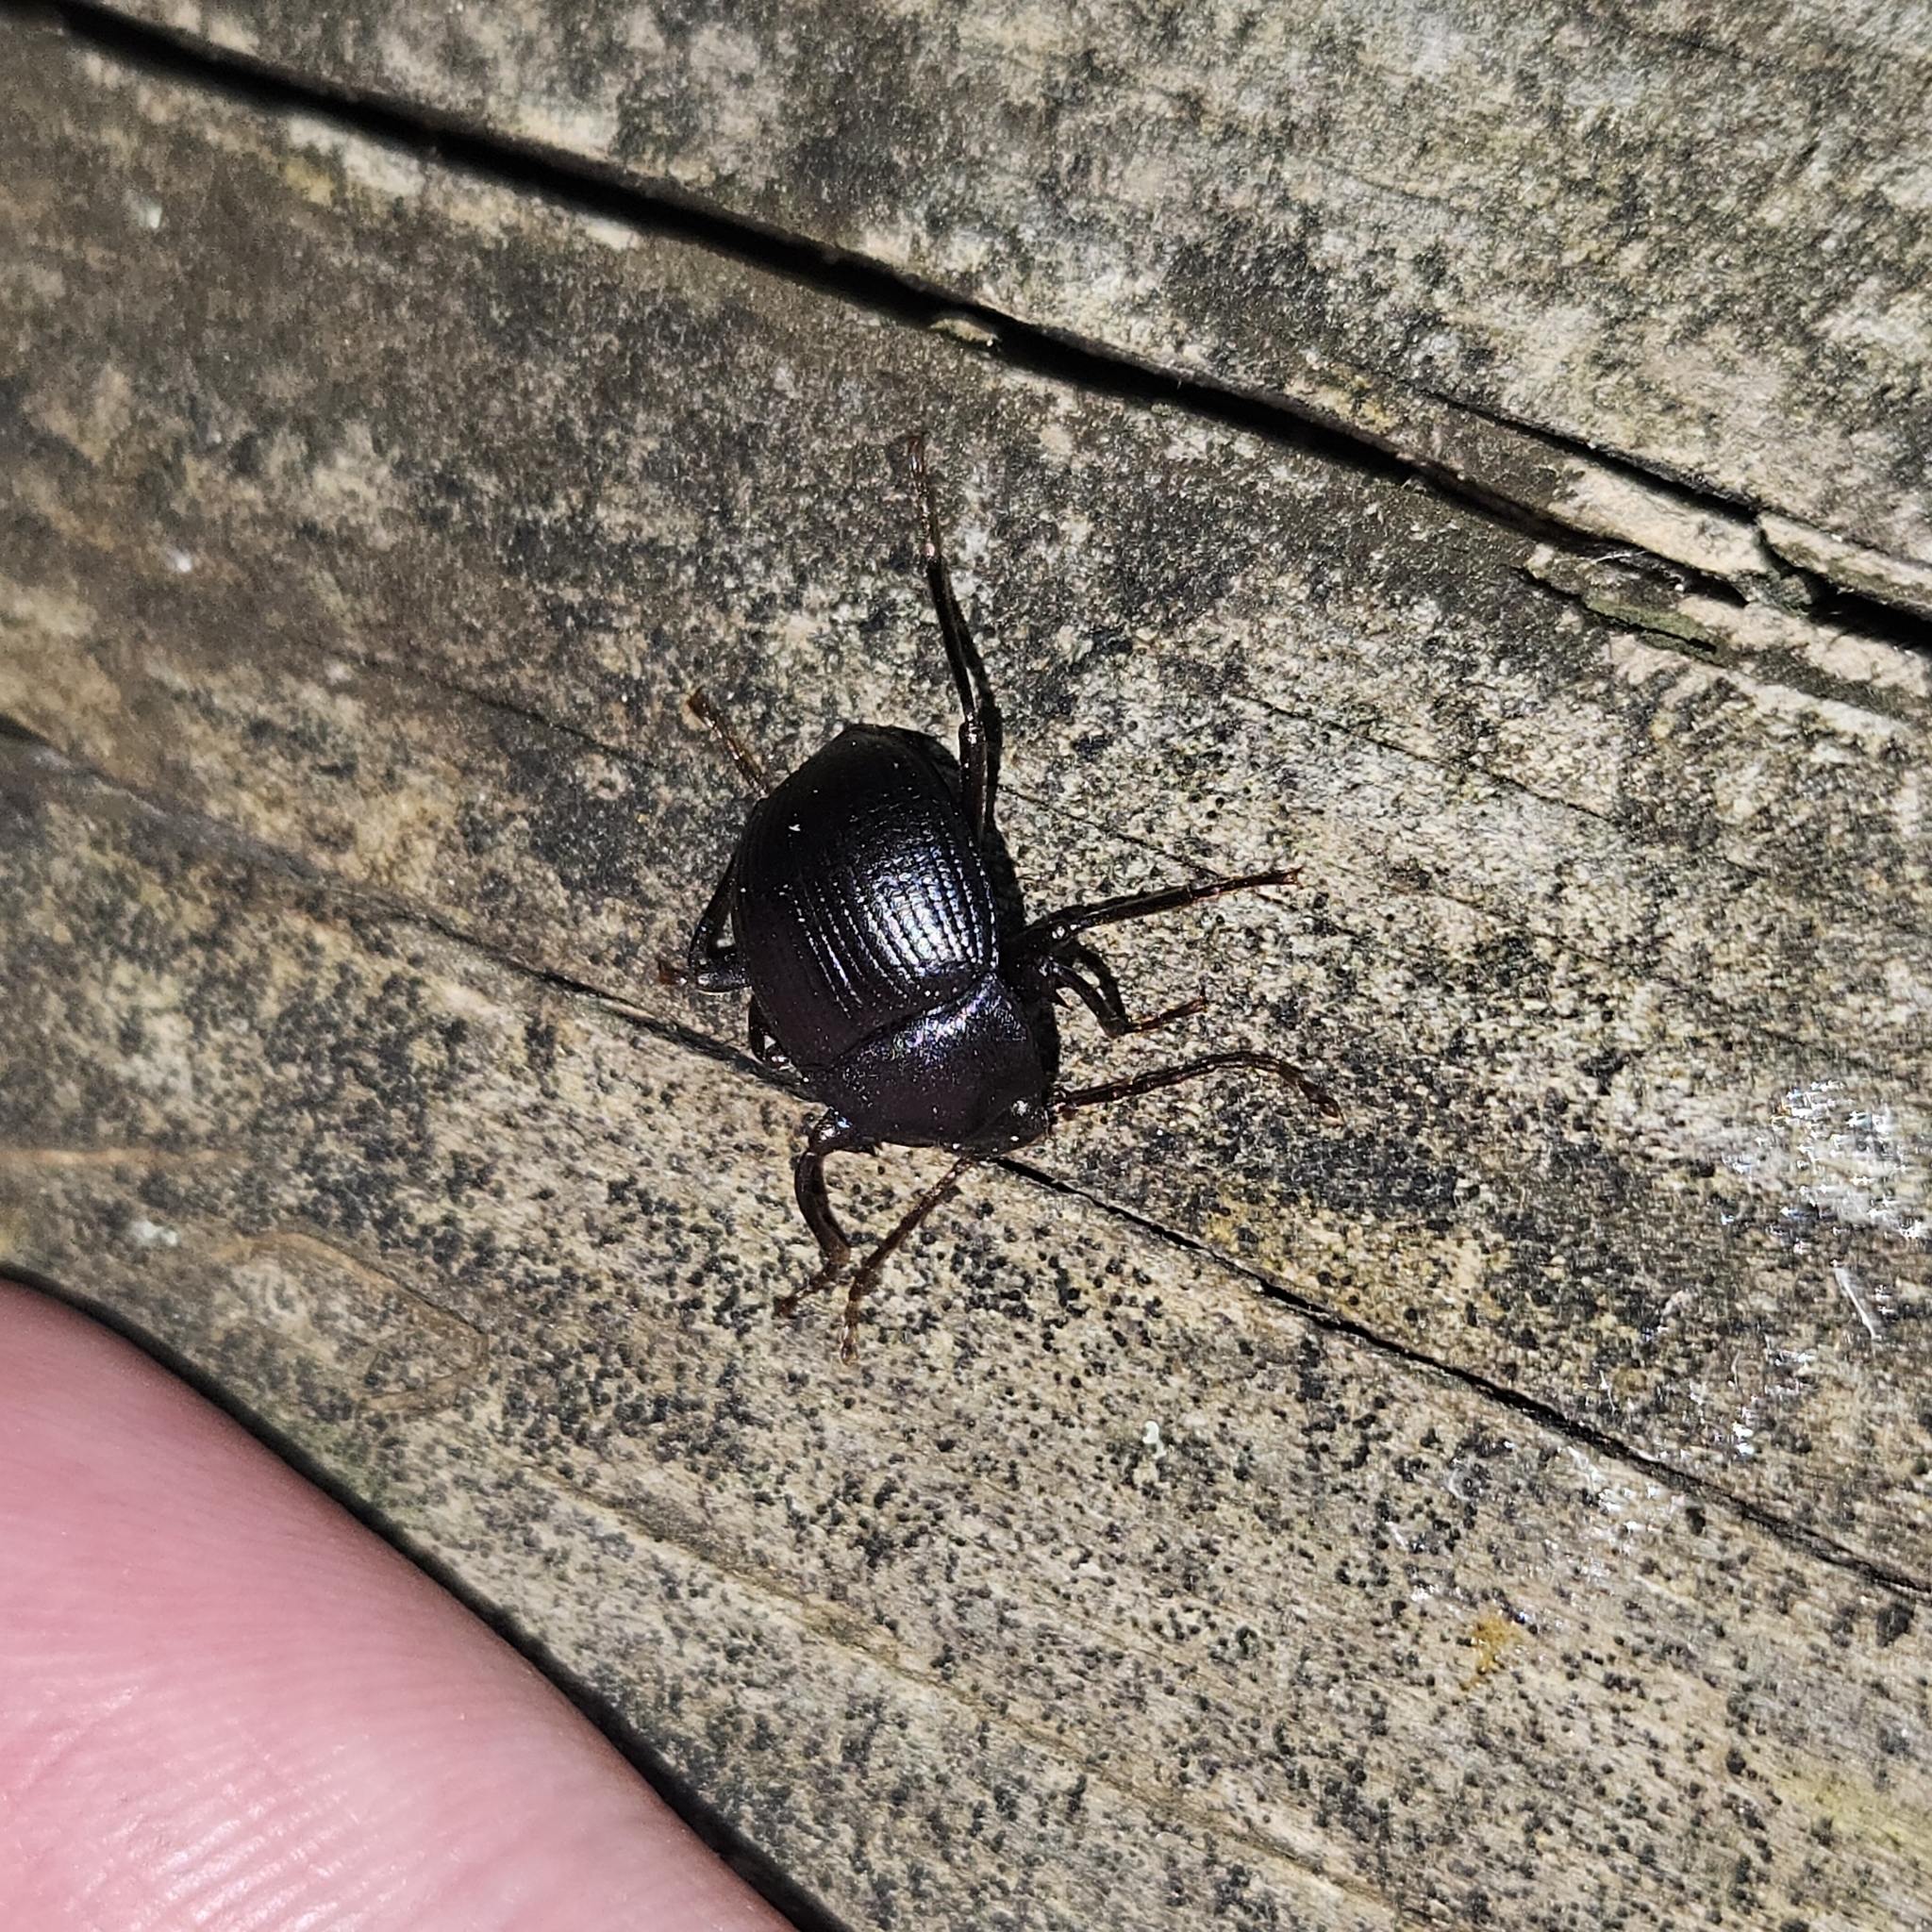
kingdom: Animalia
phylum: Arthropoda
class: Insecta
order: Coleoptera
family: Tenebrionidae
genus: Accanthopus
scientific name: Accanthopus velikensis
